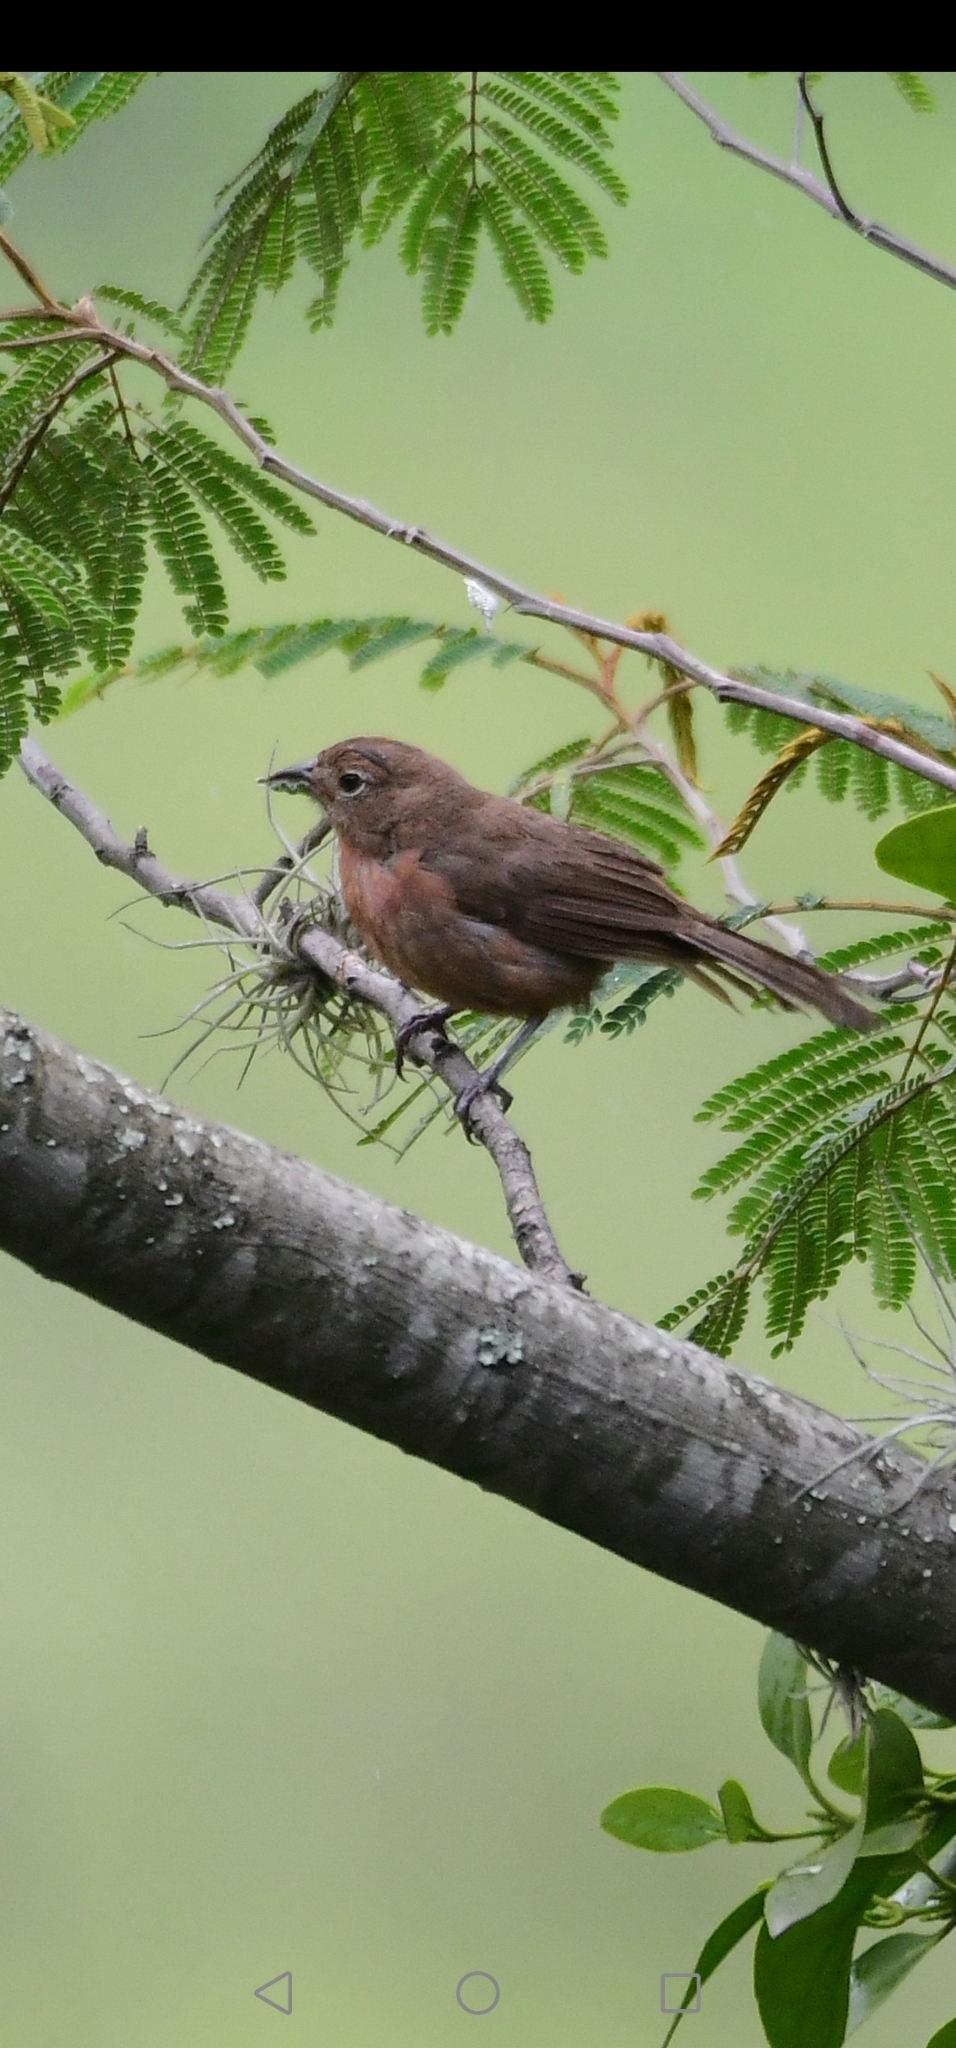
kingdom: Animalia
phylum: Chordata
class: Aves
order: Passeriformes
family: Thraupidae
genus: Coryphospingus
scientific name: Coryphospingus cucullatus
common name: Red pileated finch
